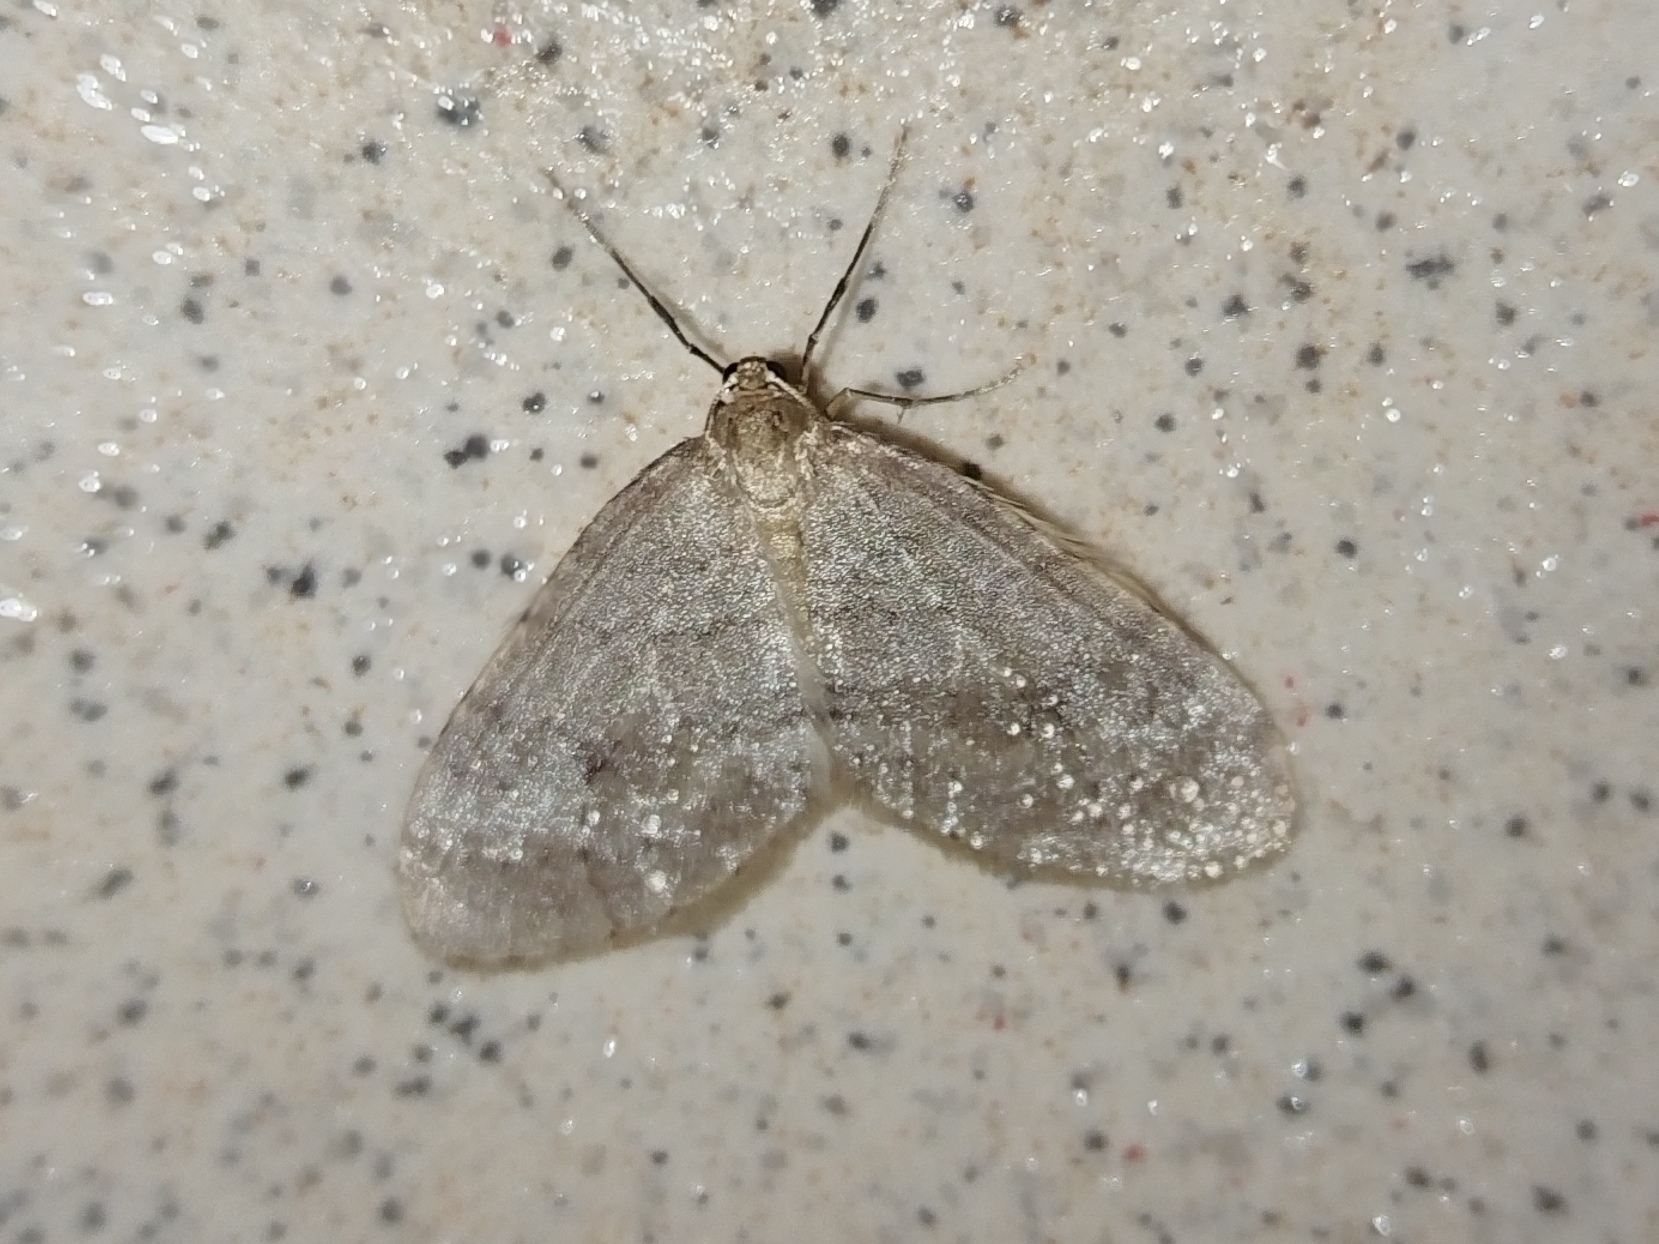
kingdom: Animalia
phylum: Arthropoda
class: Insecta
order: Lepidoptera
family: Geometridae
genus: Operophtera
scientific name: Operophtera brumata
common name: Winter moth
